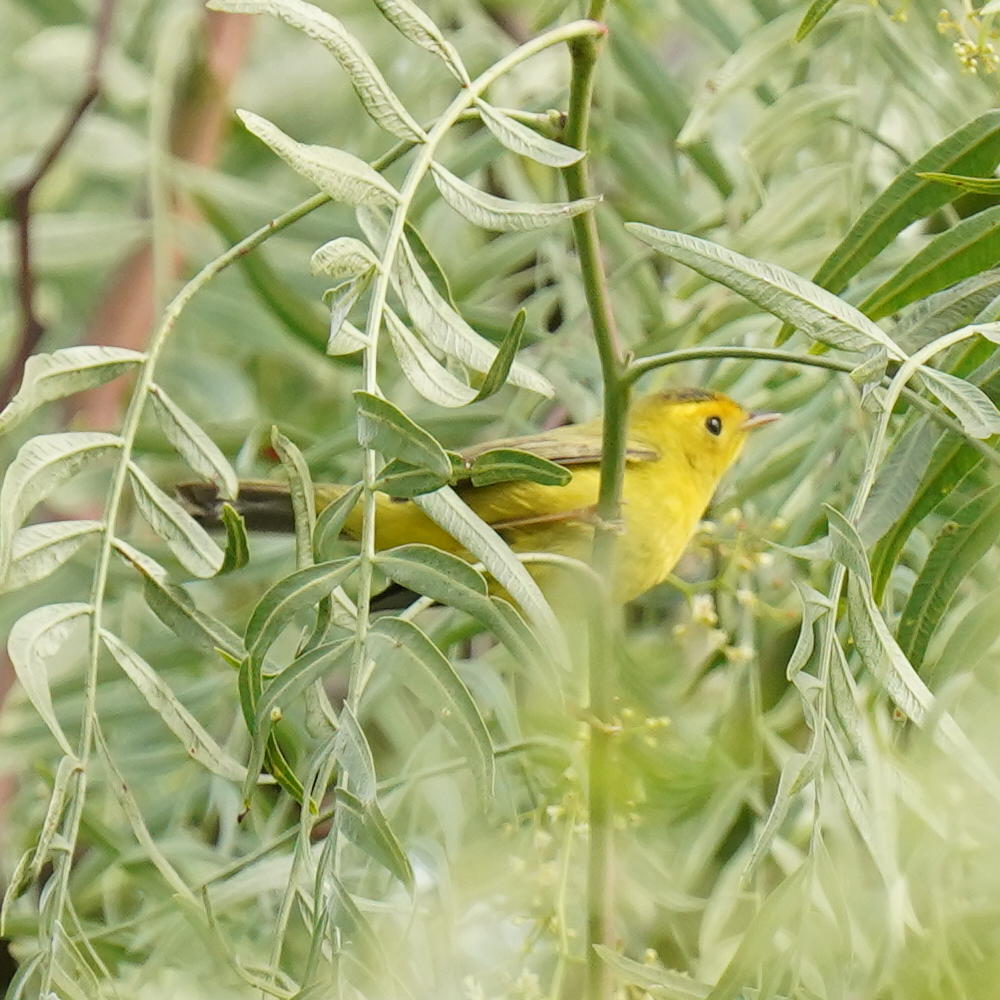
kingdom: Animalia
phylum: Chordata
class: Aves
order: Passeriformes
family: Parulidae
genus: Cardellina
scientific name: Cardellina pusilla
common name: Wilson's warbler
